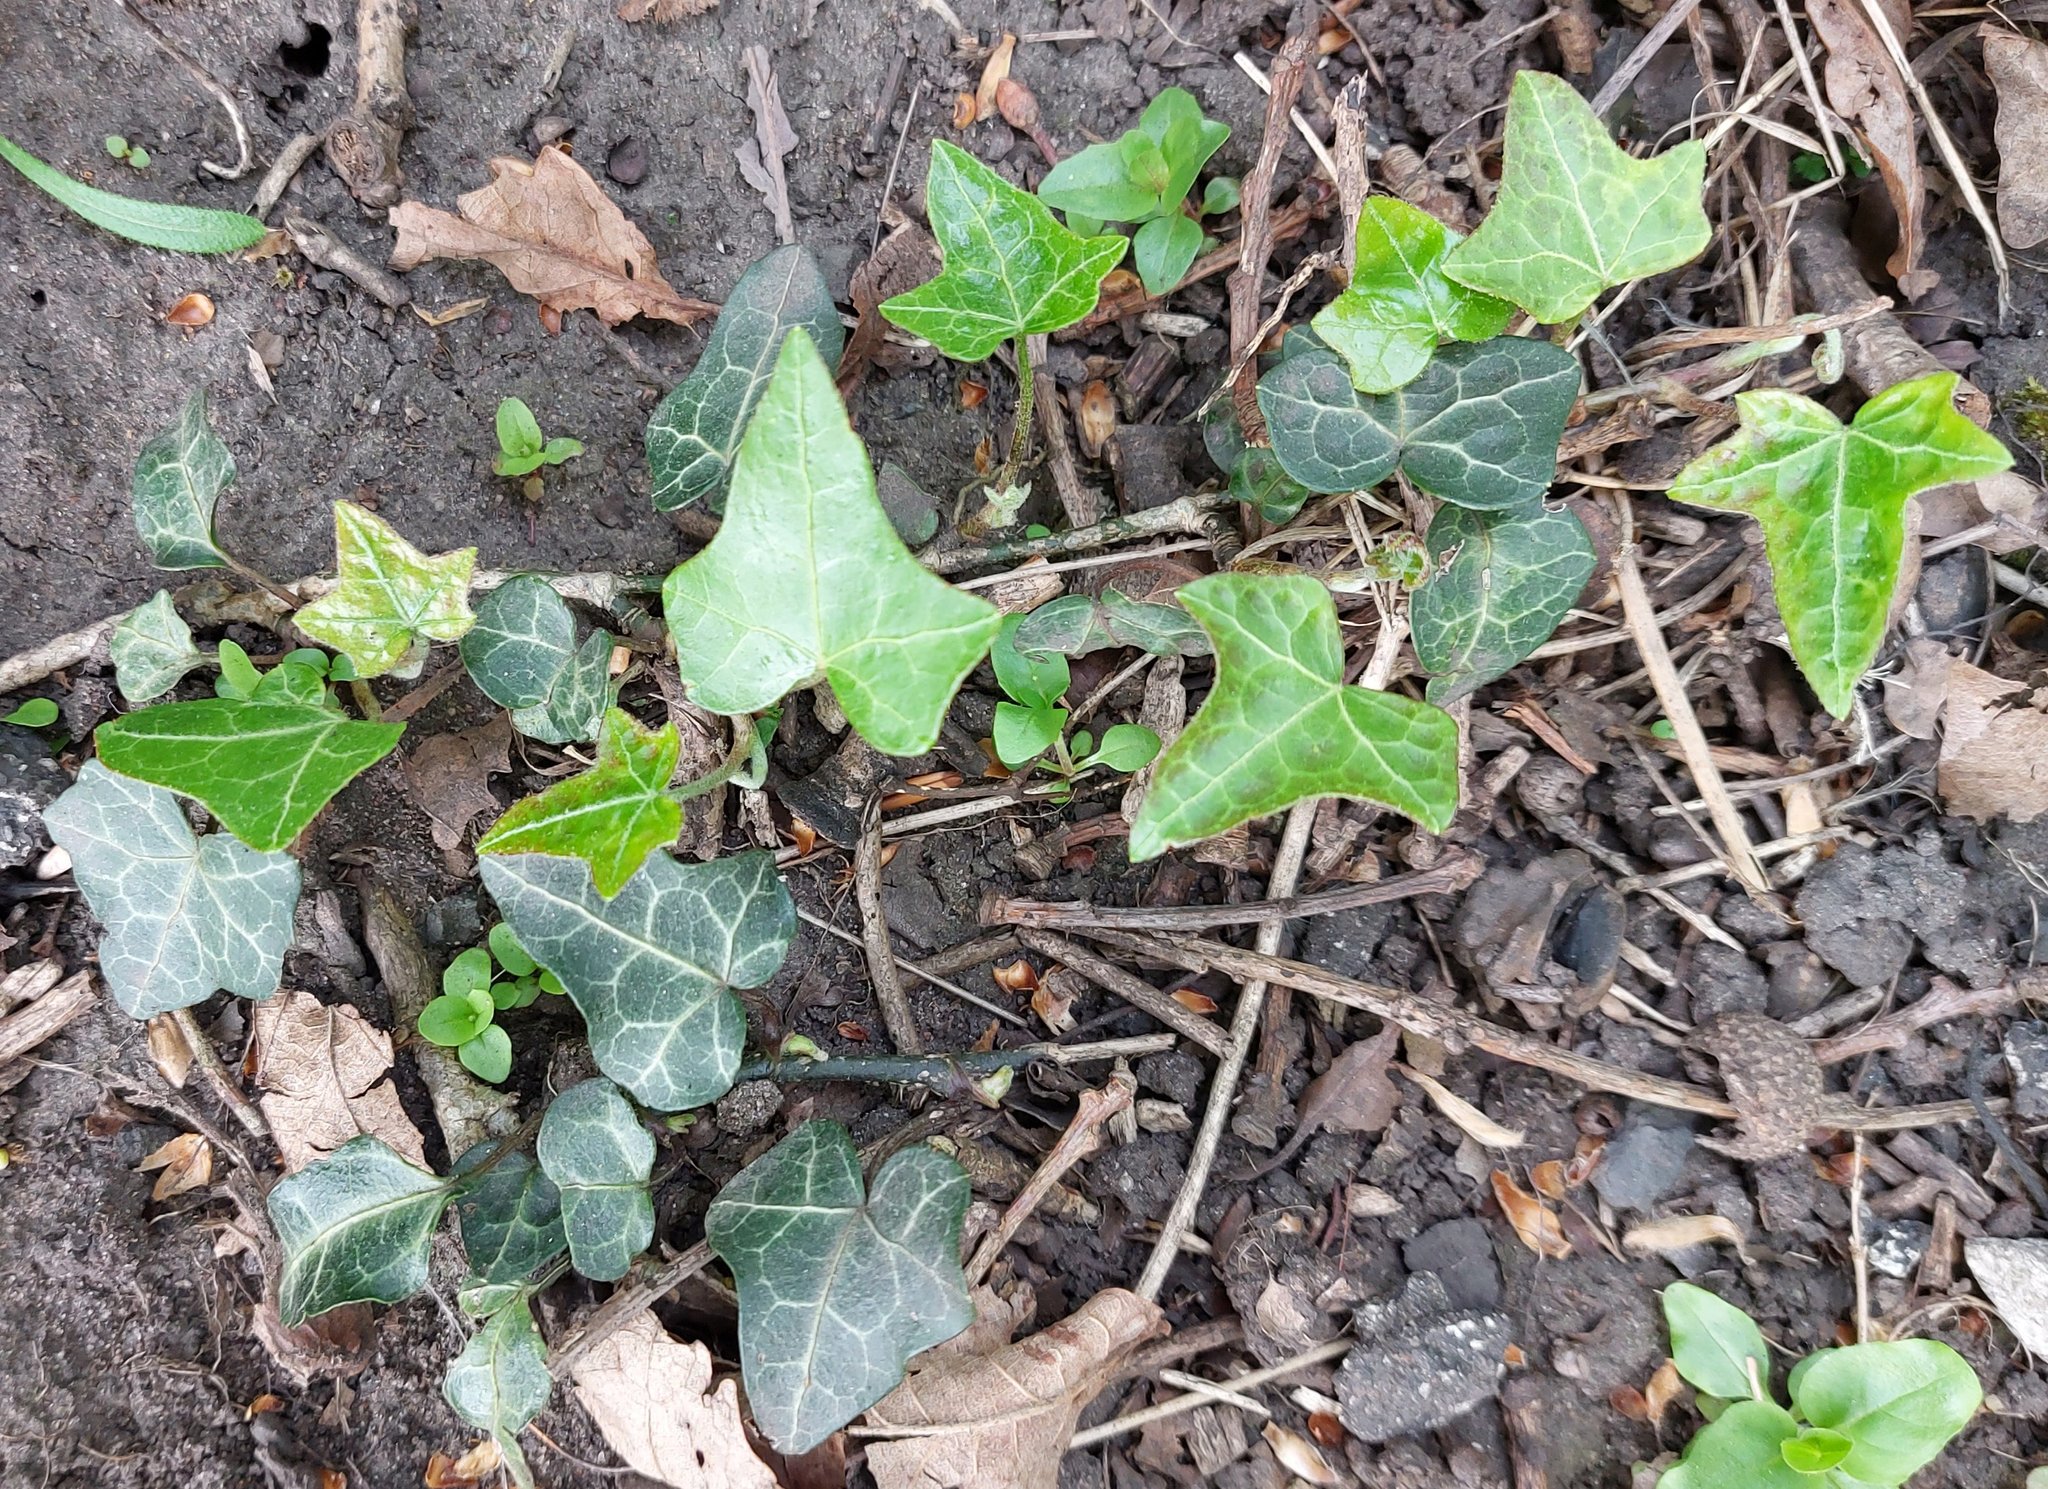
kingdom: Plantae
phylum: Tracheophyta
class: Magnoliopsida
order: Apiales
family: Araliaceae
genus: Hedera
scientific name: Hedera helix
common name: Ivy
